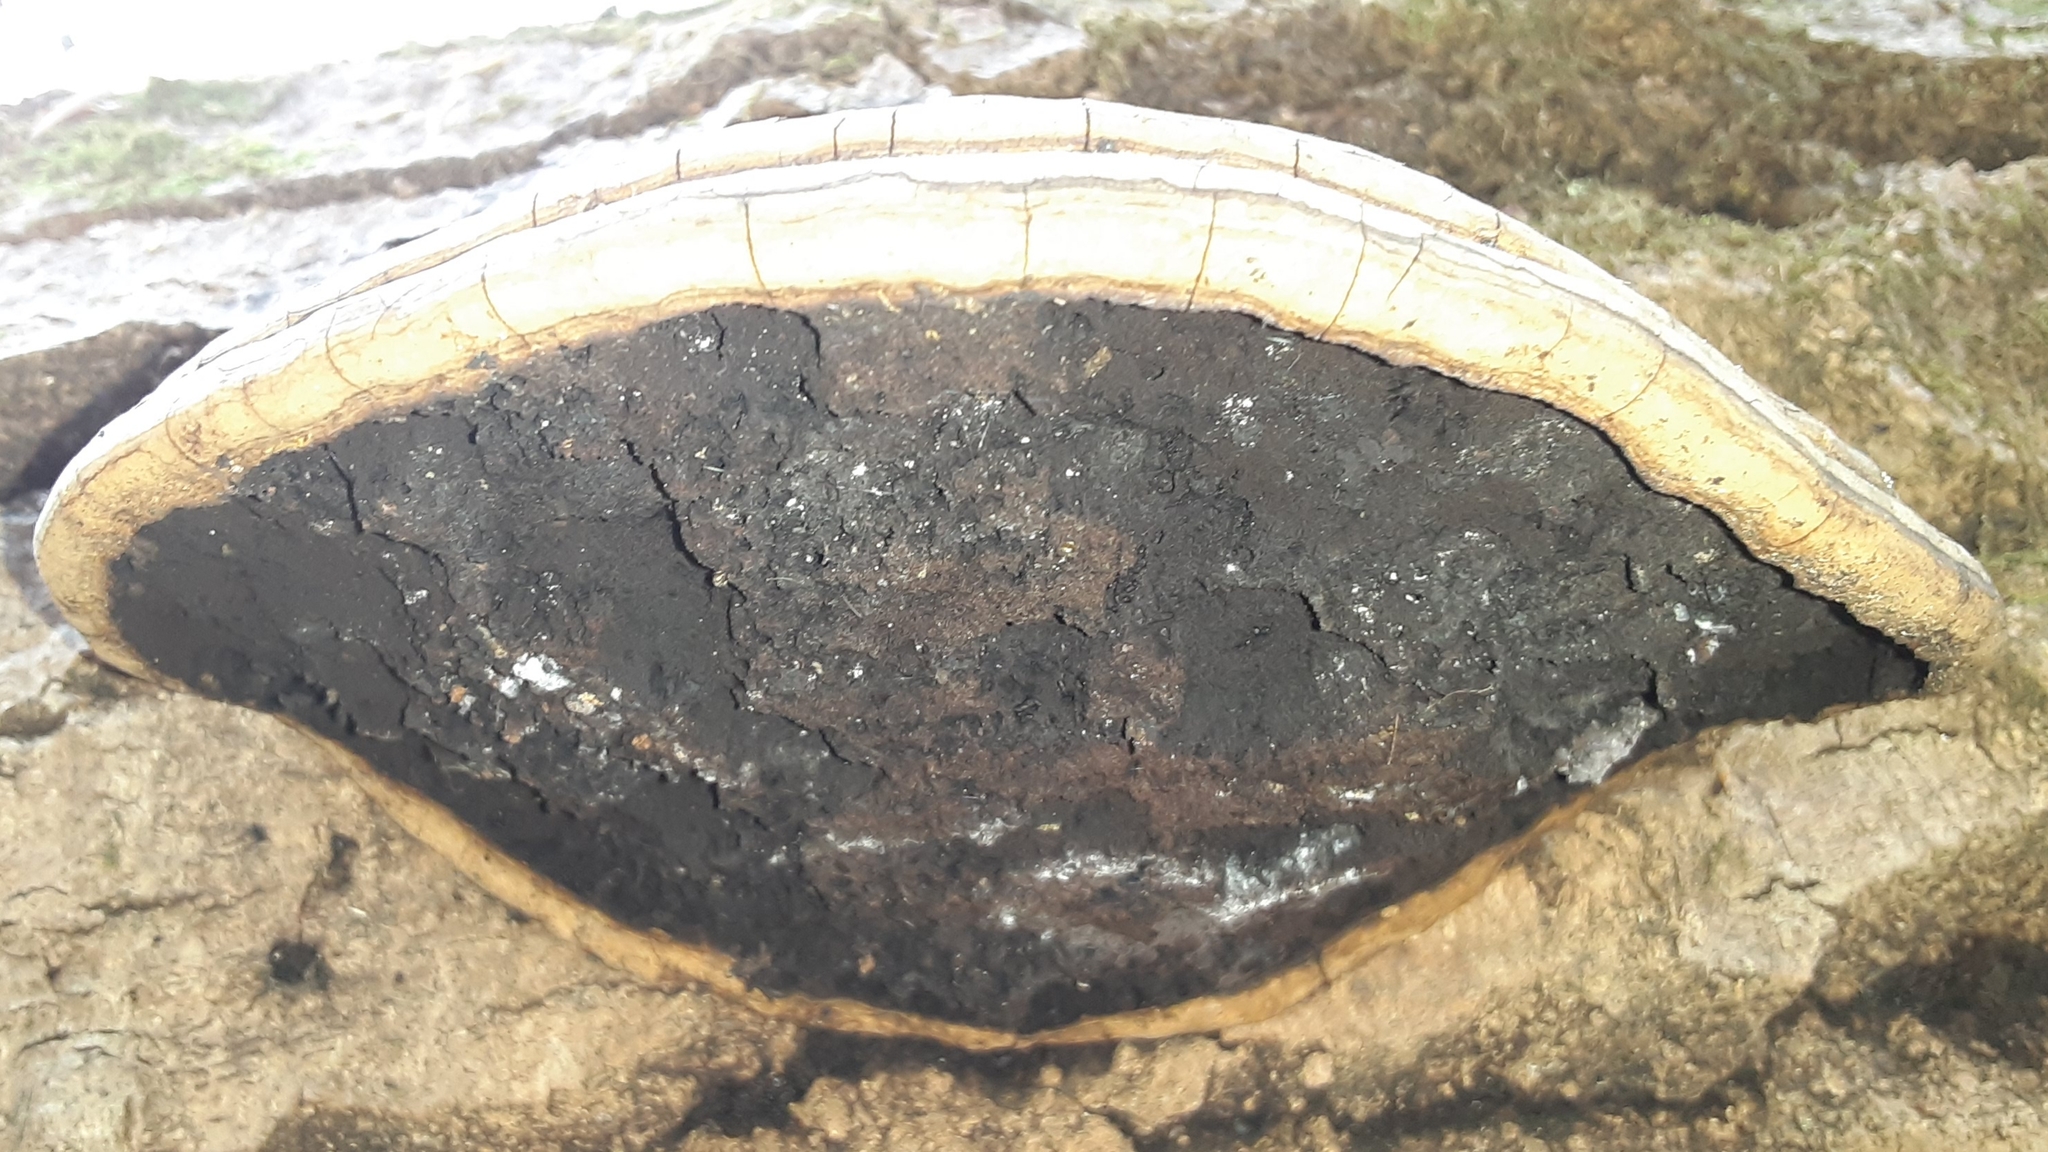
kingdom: Fungi
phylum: Basidiomycota
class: Agaricomycetes
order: Polyporales
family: Polyporaceae
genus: Ganoderma
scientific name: Ganoderma applanatum
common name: Artist's bracket
